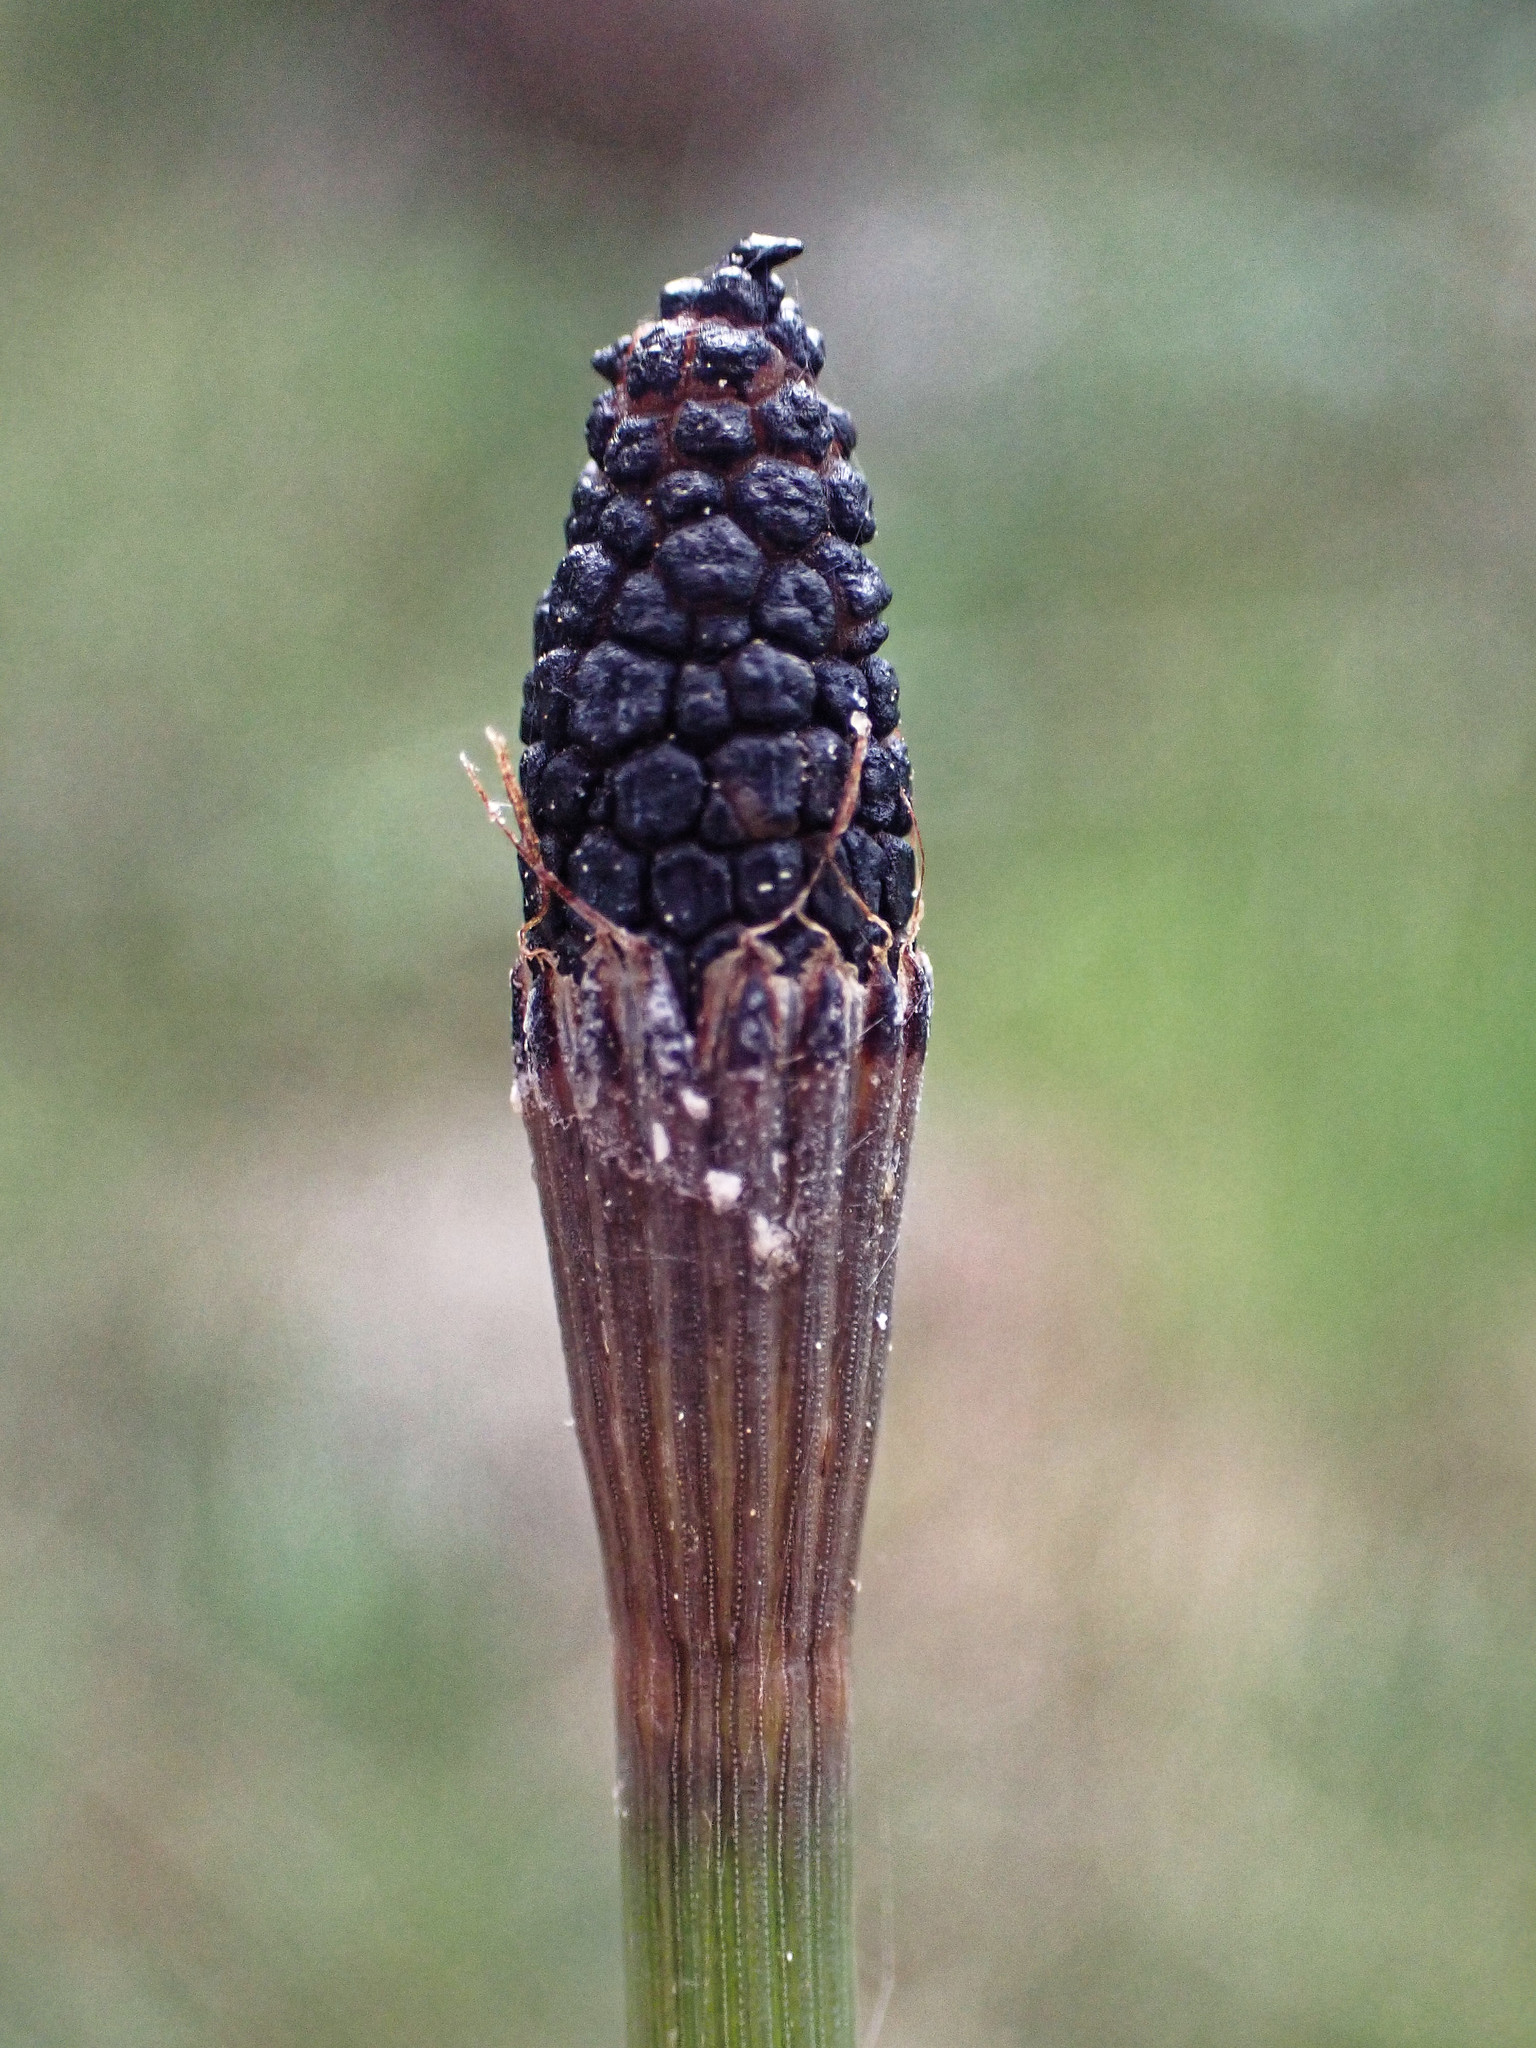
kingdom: Plantae
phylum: Tracheophyta
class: Polypodiopsida
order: Equisetales
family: Equisetaceae
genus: Equisetum
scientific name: Equisetum ramosissimum
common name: Branched horsetail
